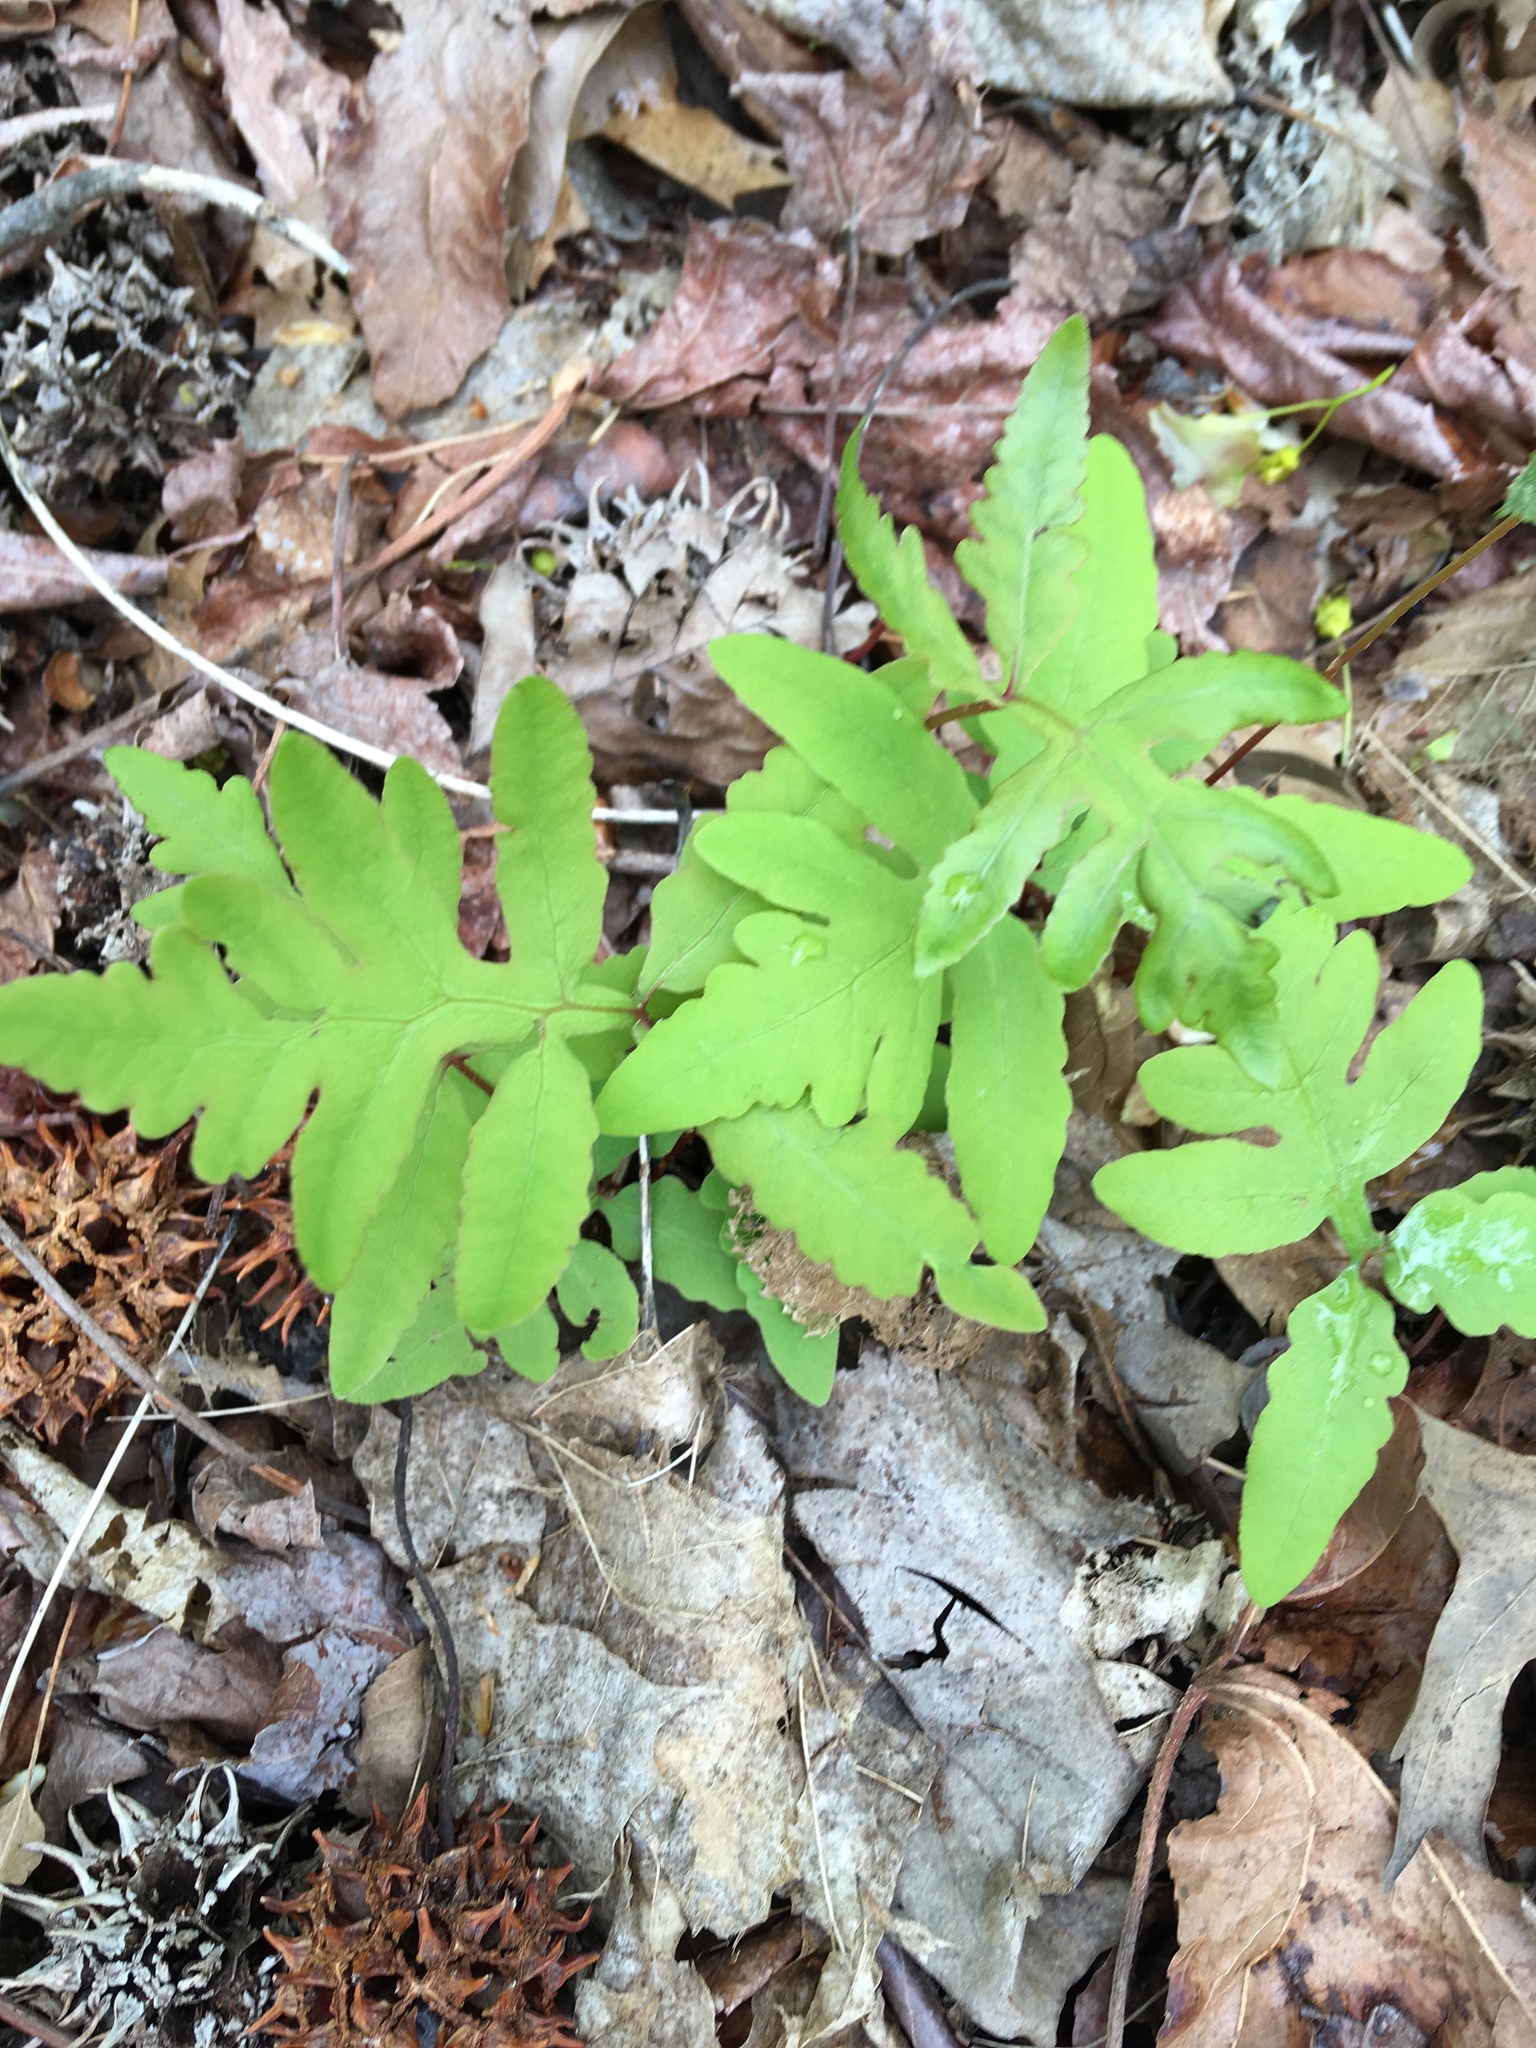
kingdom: Plantae
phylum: Tracheophyta
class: Polypodiopsida
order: Polypodiales
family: Onocleaceae
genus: Onoclea
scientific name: Onoclea sensibilis
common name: Sensitive fern
